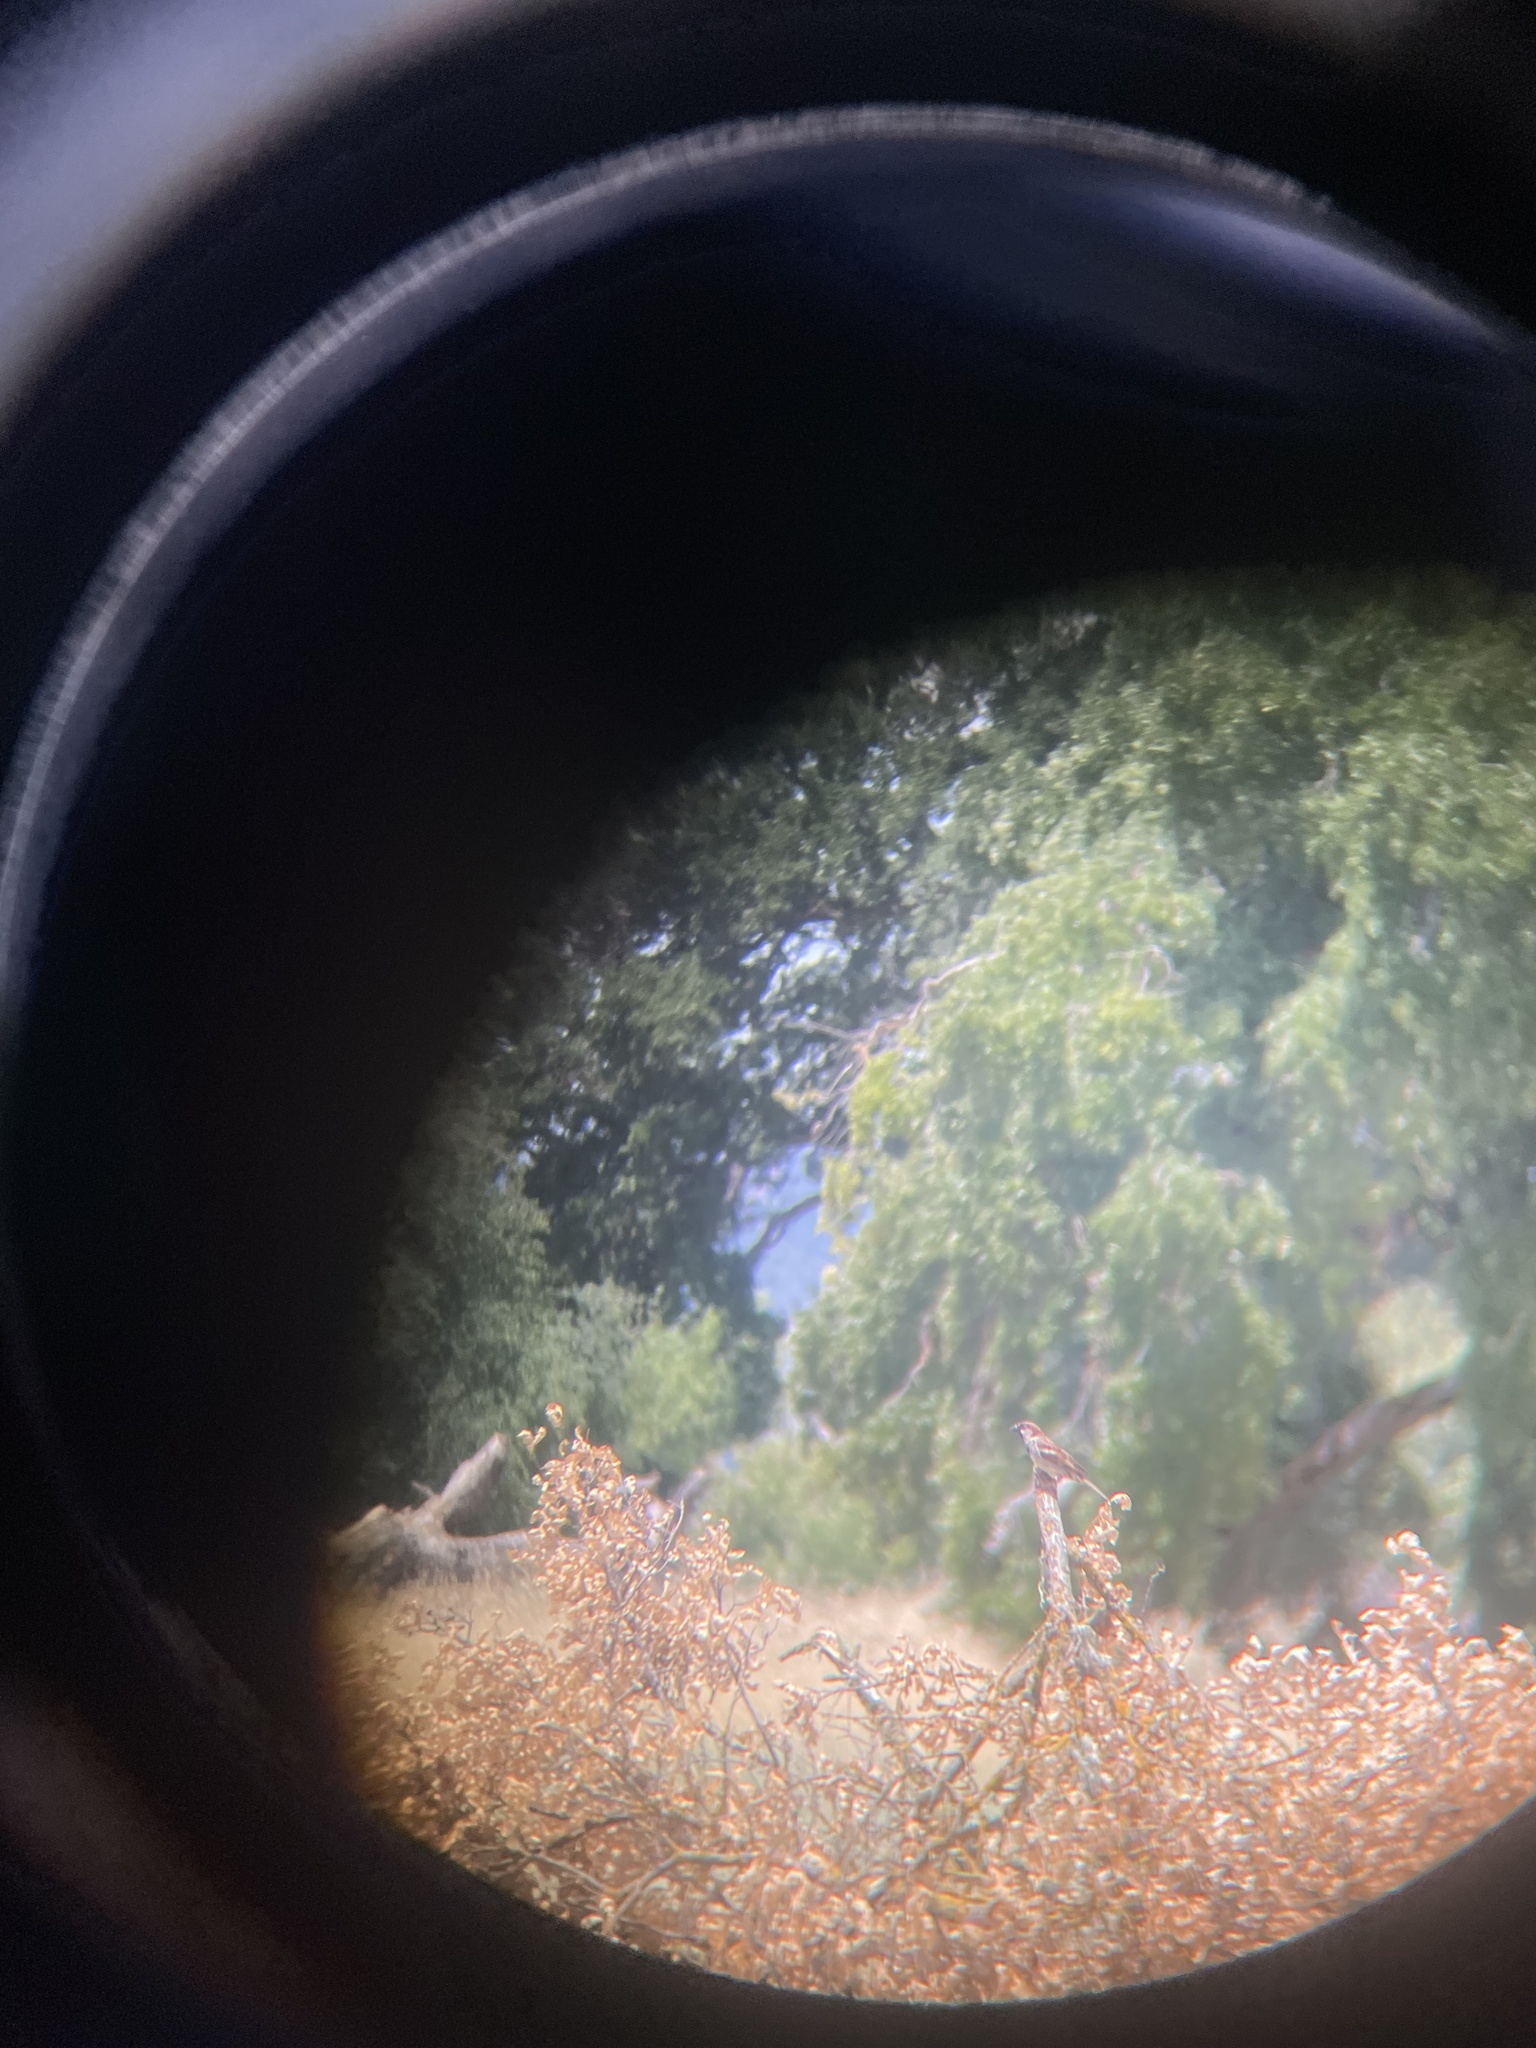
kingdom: Animalia
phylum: Chordata
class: Aves
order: Passeriformes
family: Passeridae
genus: Passer
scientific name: Passer domesticus
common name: House sparrow
